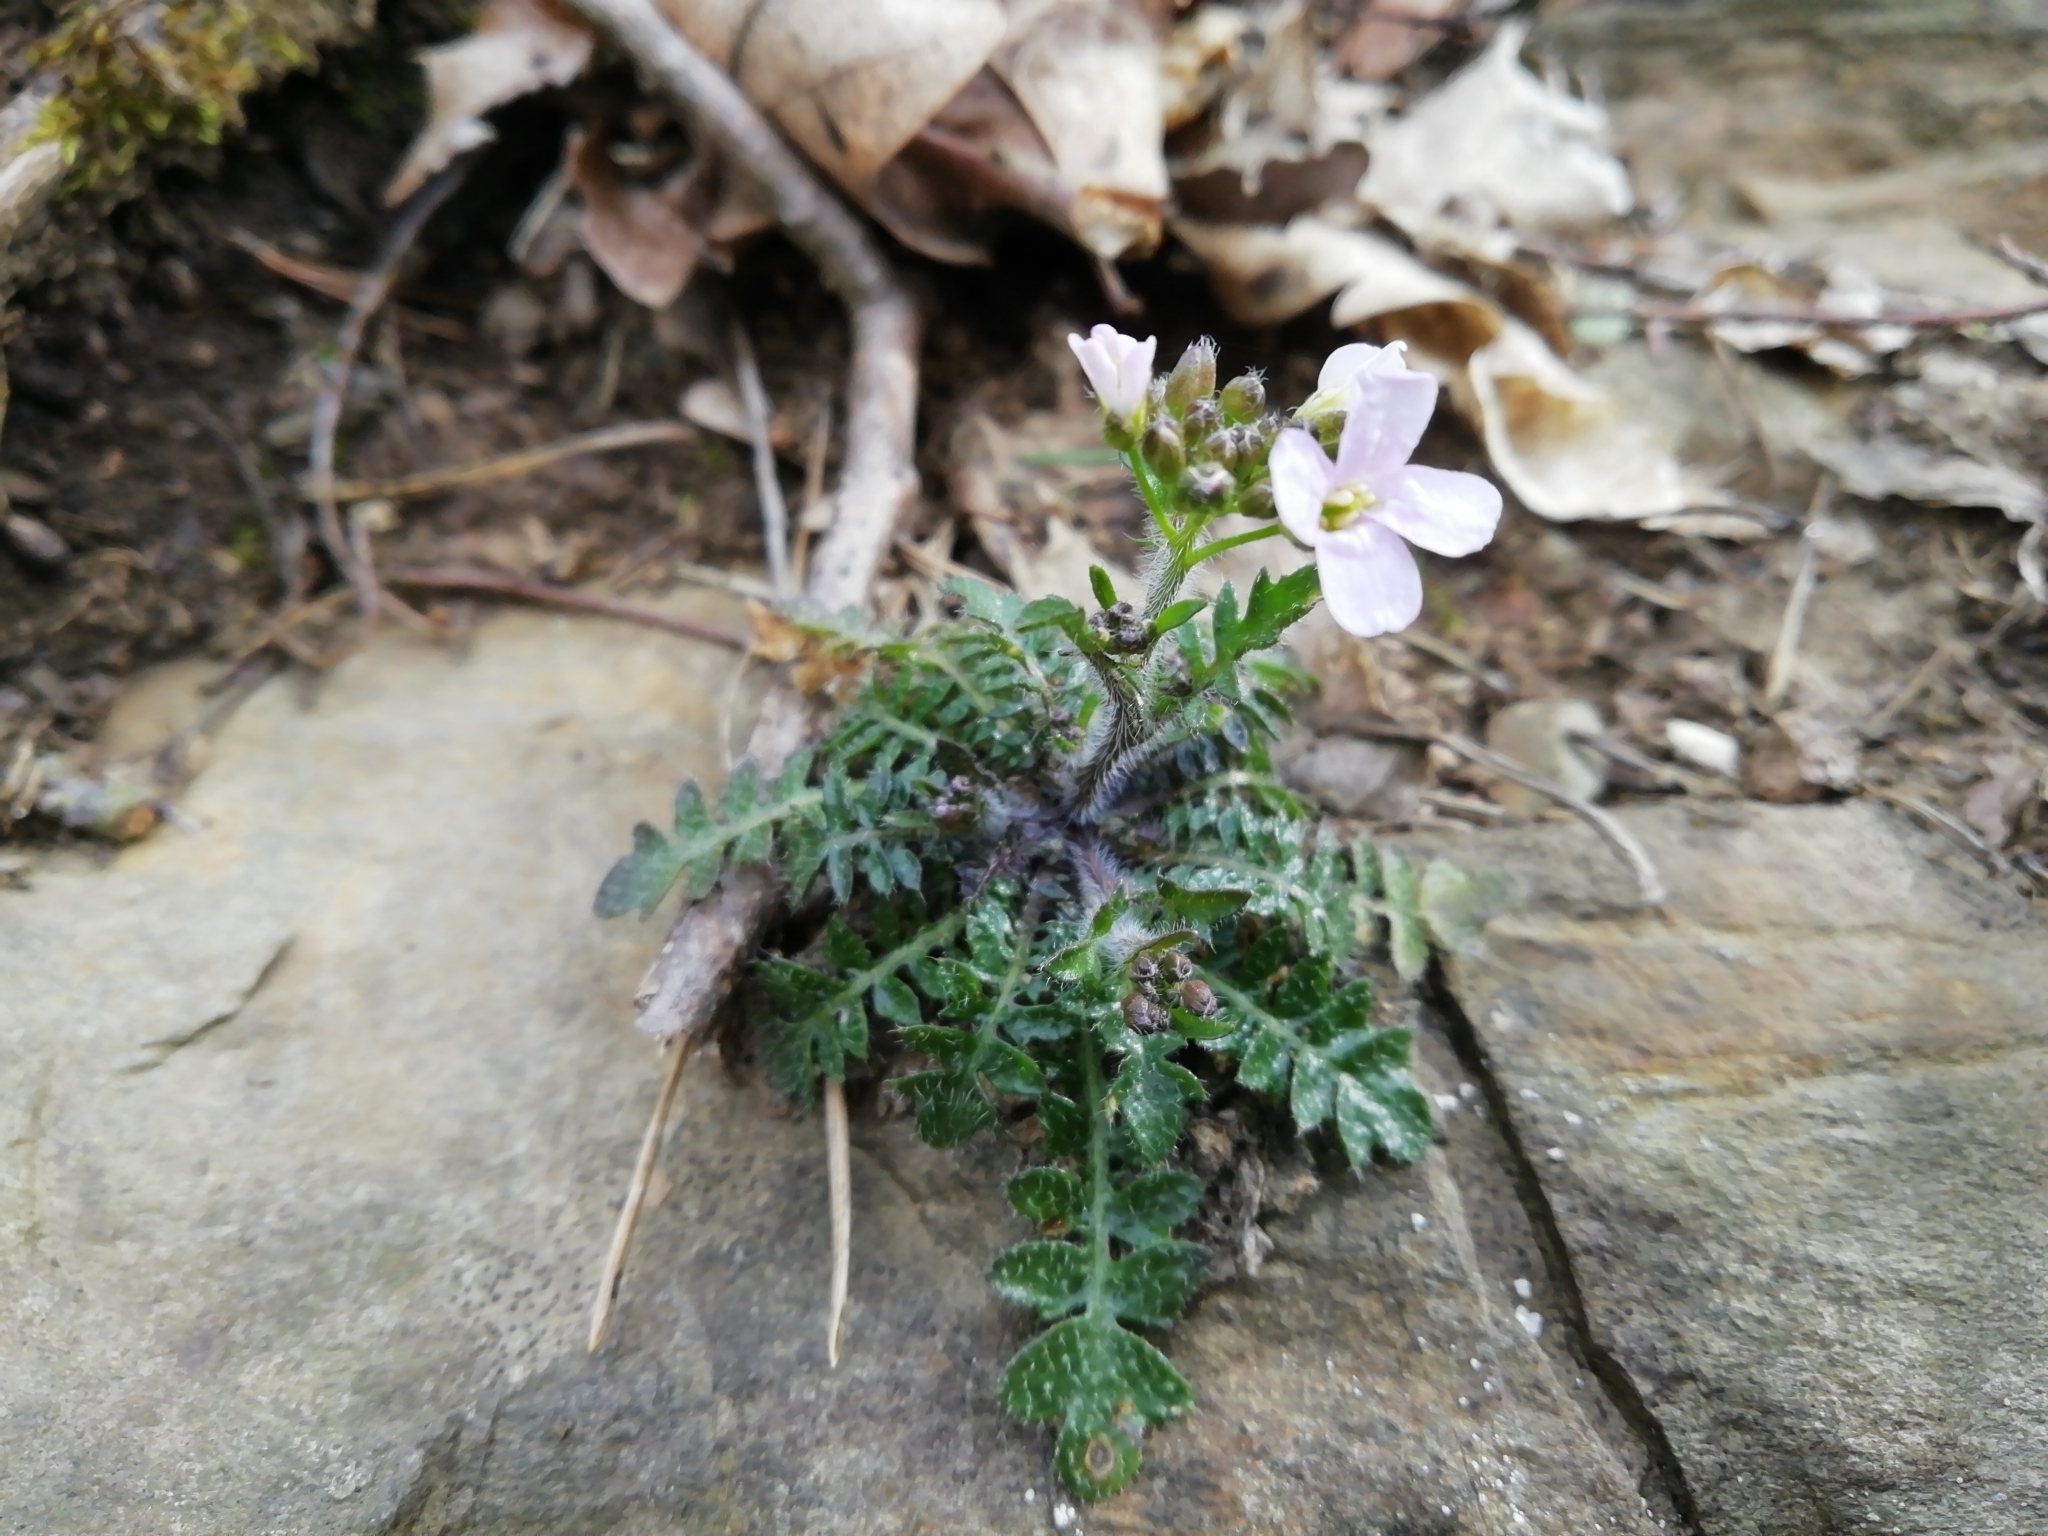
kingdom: Plantae
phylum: Tracheophyta
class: Magnoliopsida
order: Brassicales
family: Brassicaceae
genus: Arabidopsis
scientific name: Arabidopsis arenosa
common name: Sand rock-cress
